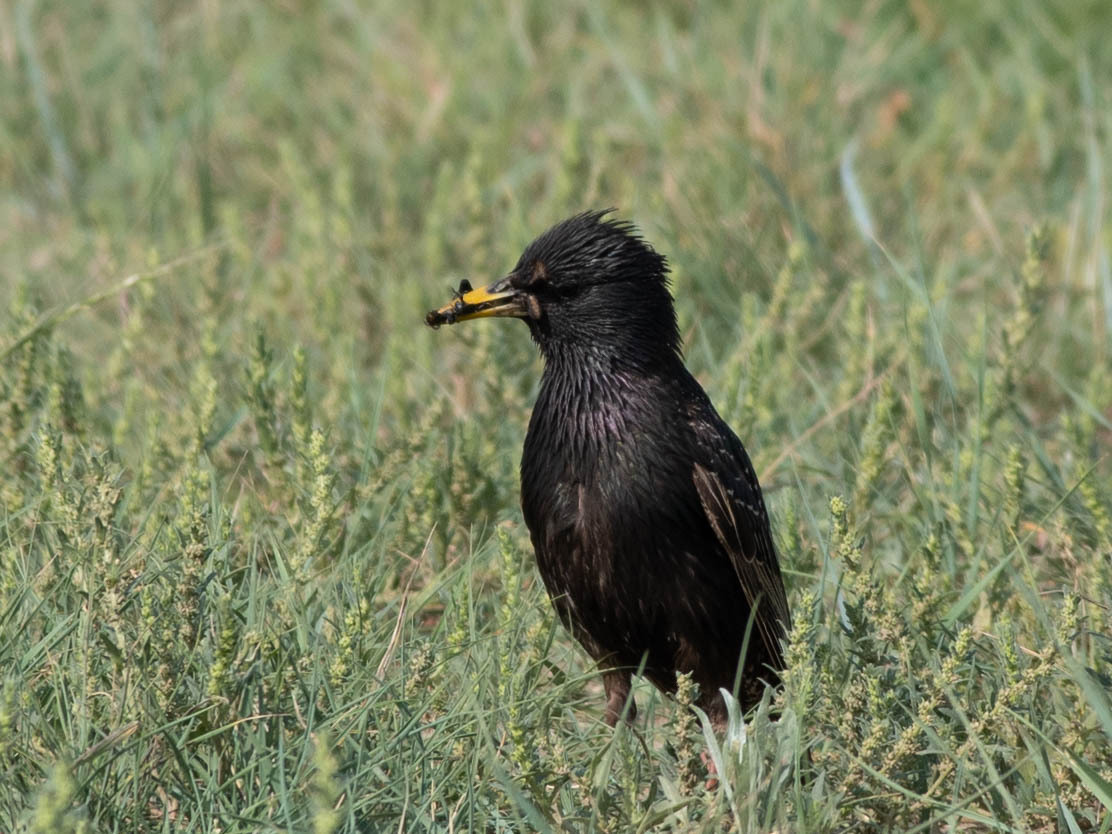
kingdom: Animalia
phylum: Chordata
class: Aves
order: Passeriformes
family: Sturnidae
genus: Sturnus
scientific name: Sturnus vulgaris
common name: Common starling
